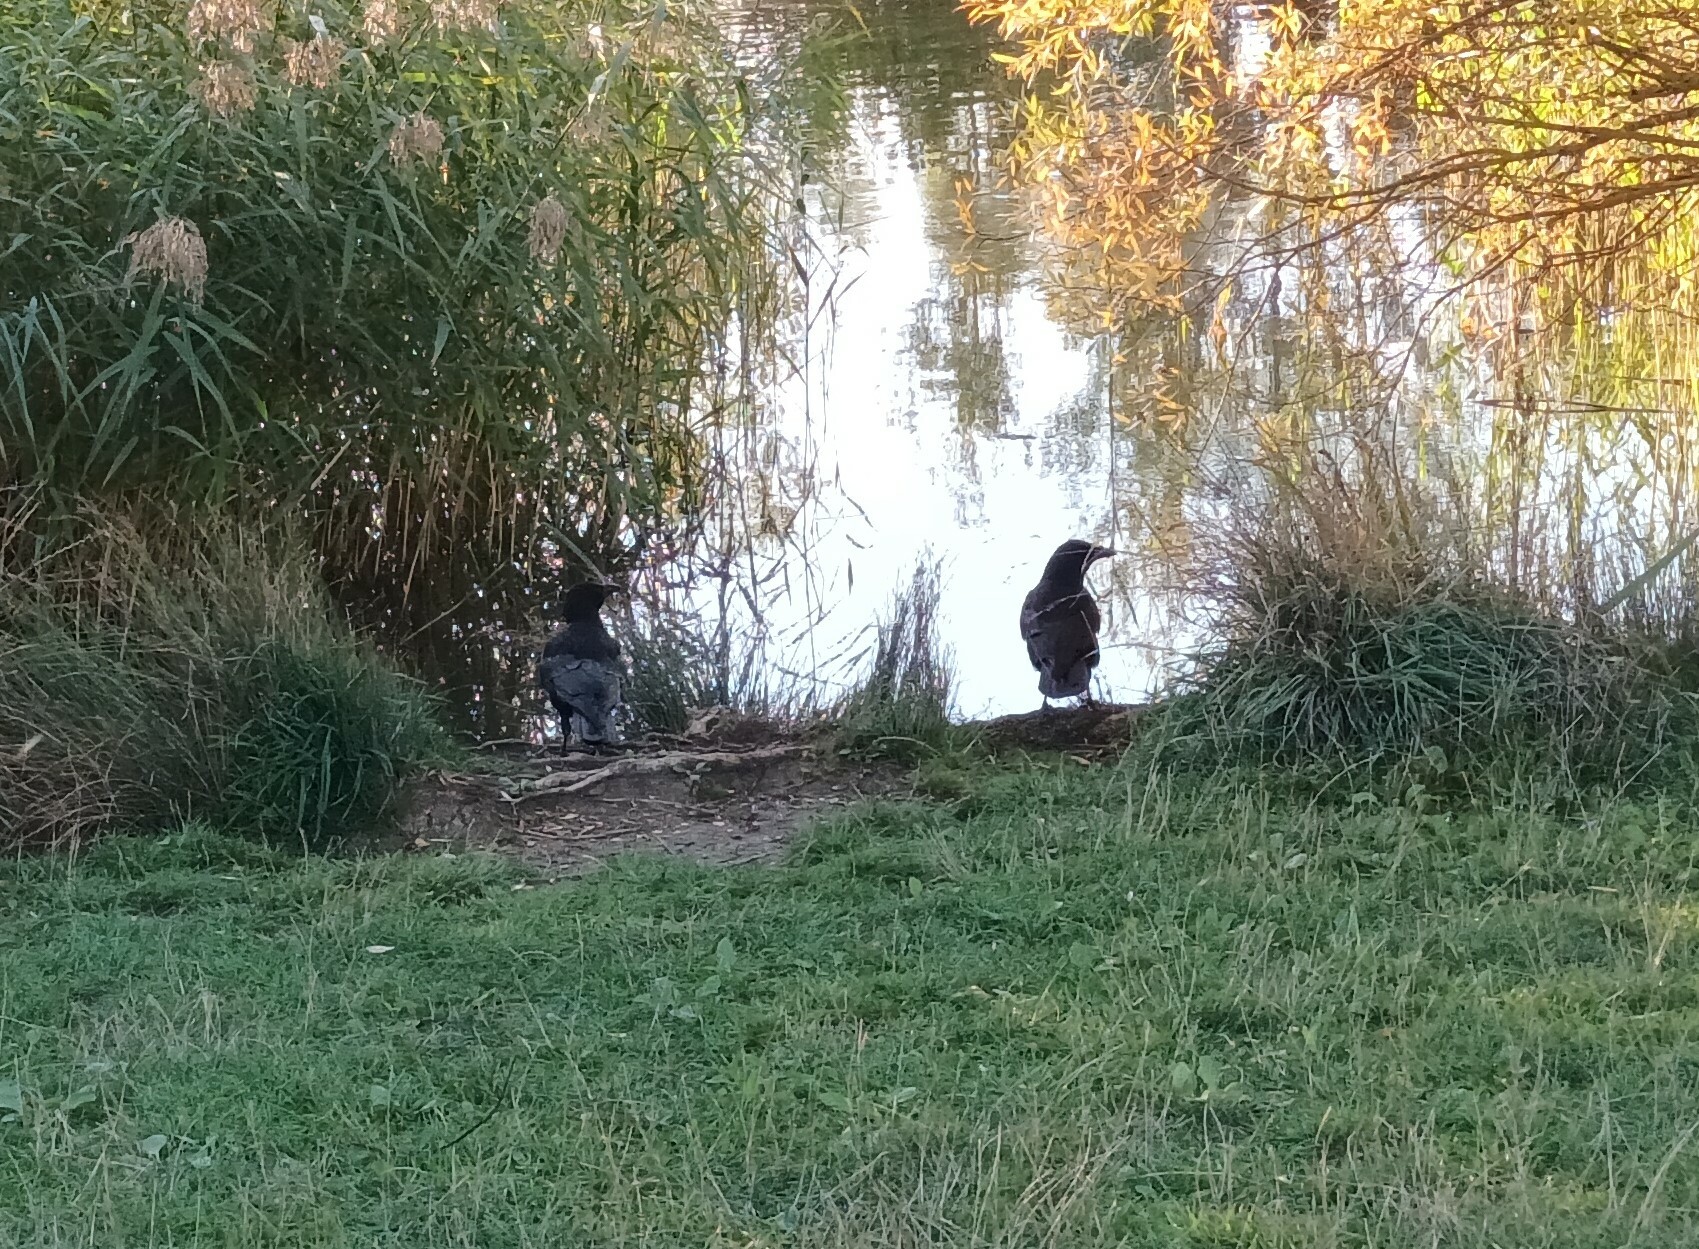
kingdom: Animalia
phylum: Chordata
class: Aves
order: Passeriformes
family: Corvidae
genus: Corvus
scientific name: Corvus corone
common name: Carrion crow
